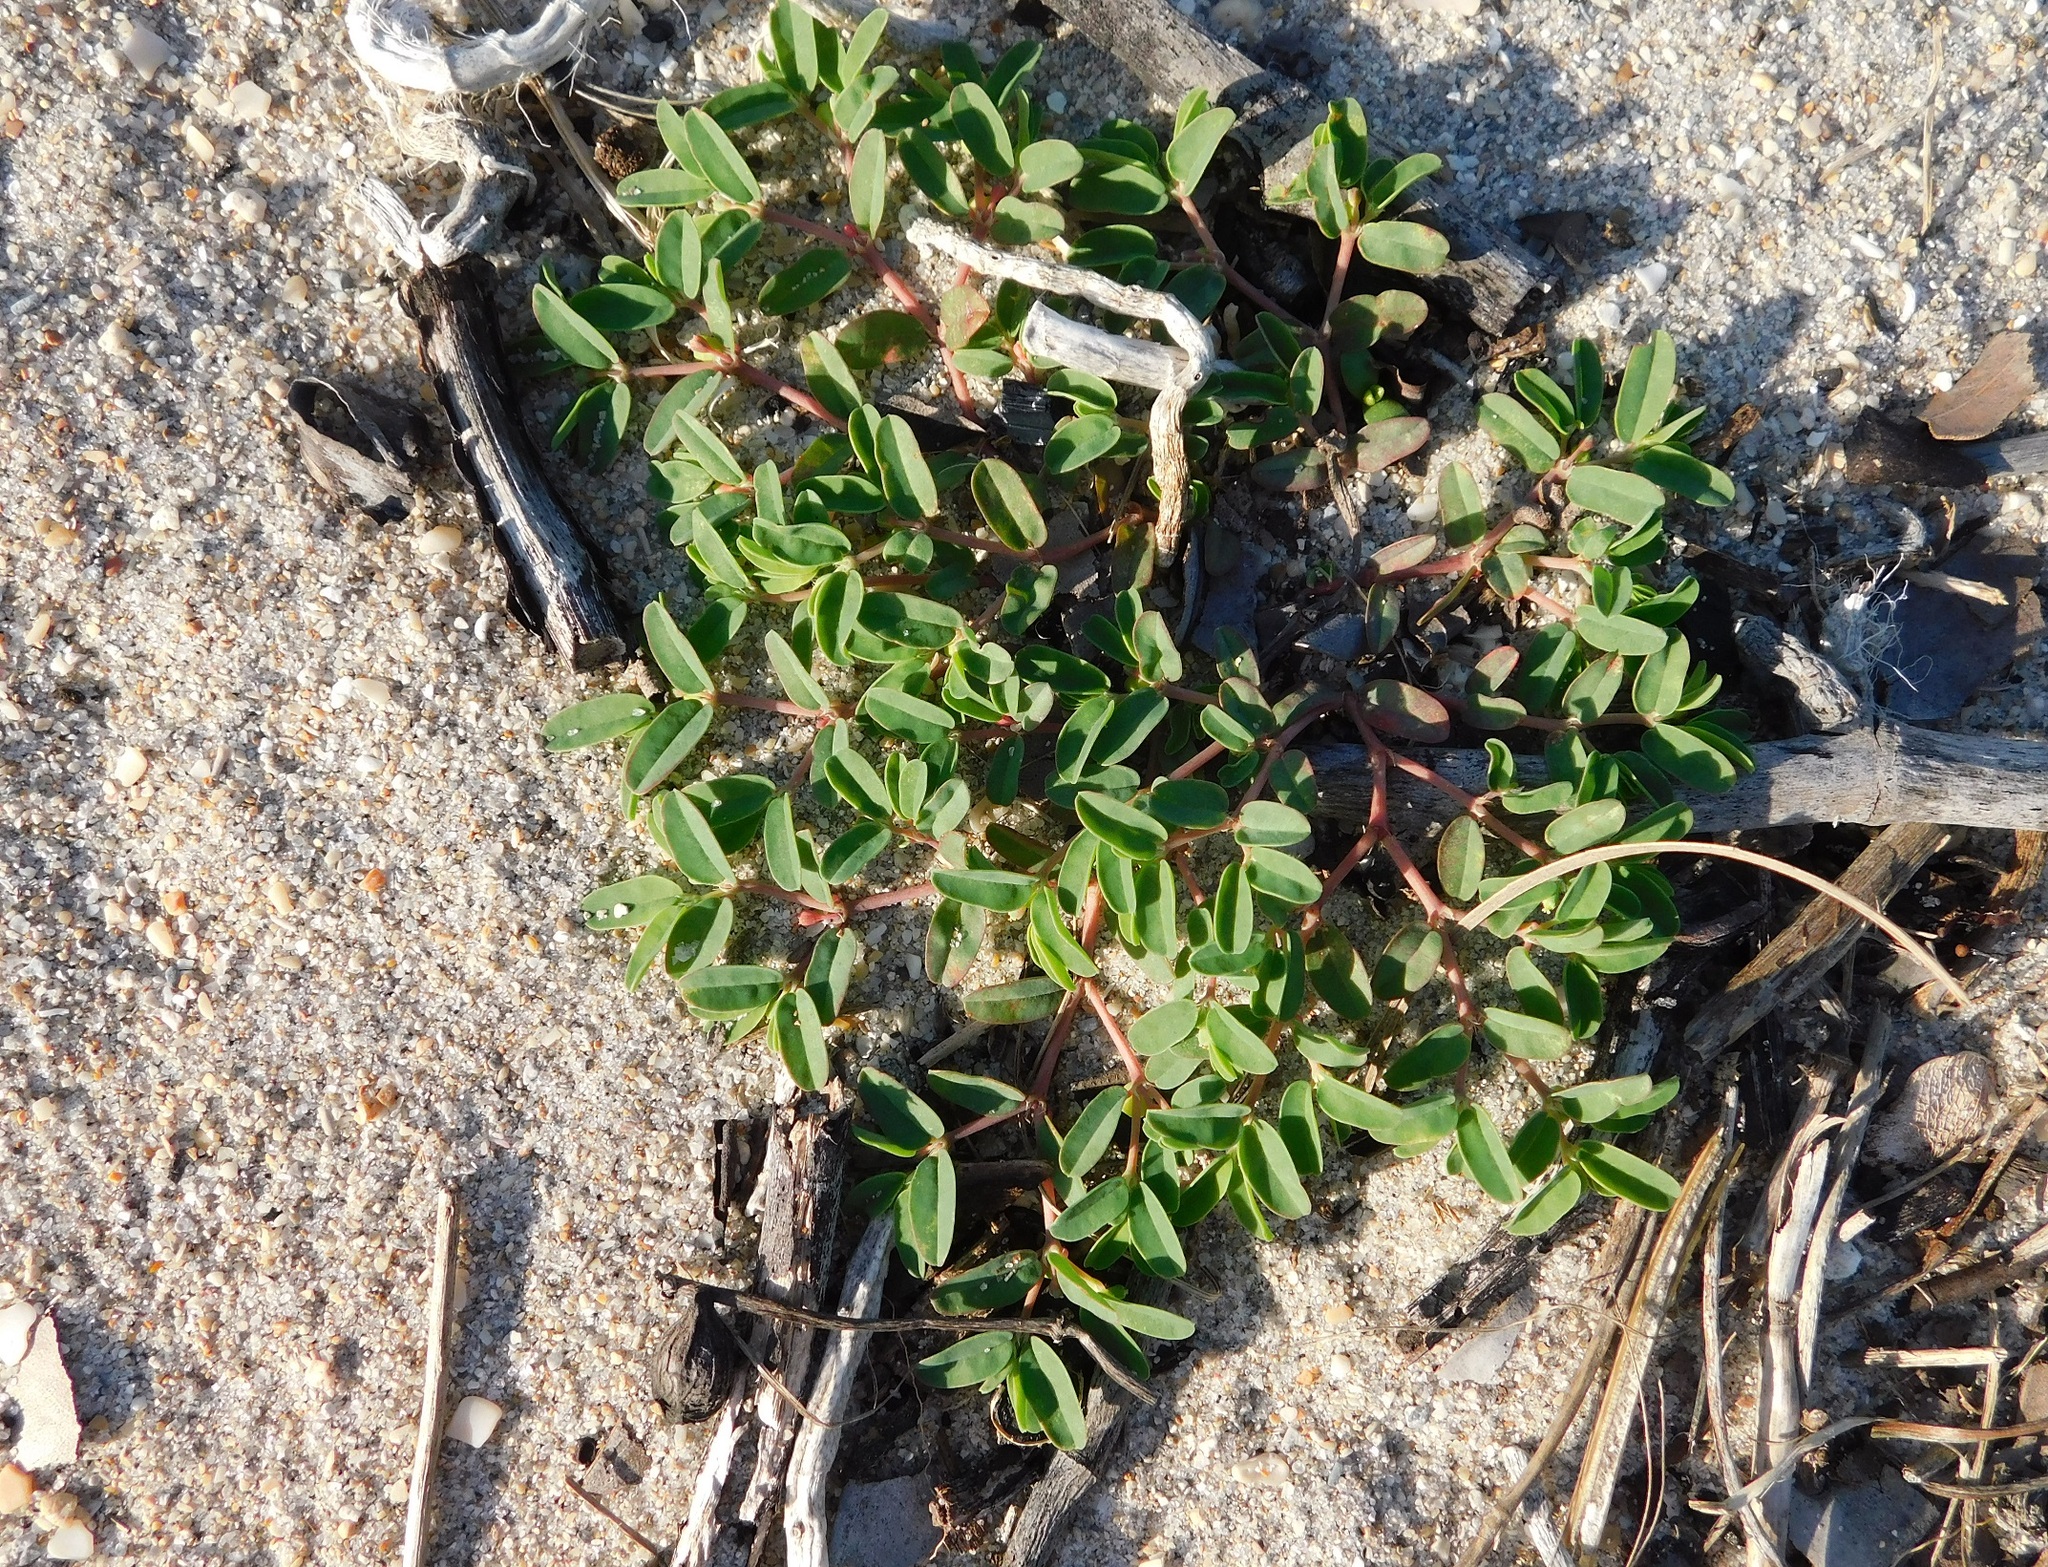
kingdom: Plantae
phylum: Tracheophyta
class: Magnoliopsida
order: Malpighiales
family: Euphorbiaceae
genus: Euphorbia
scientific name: Euphorbia bombensis
